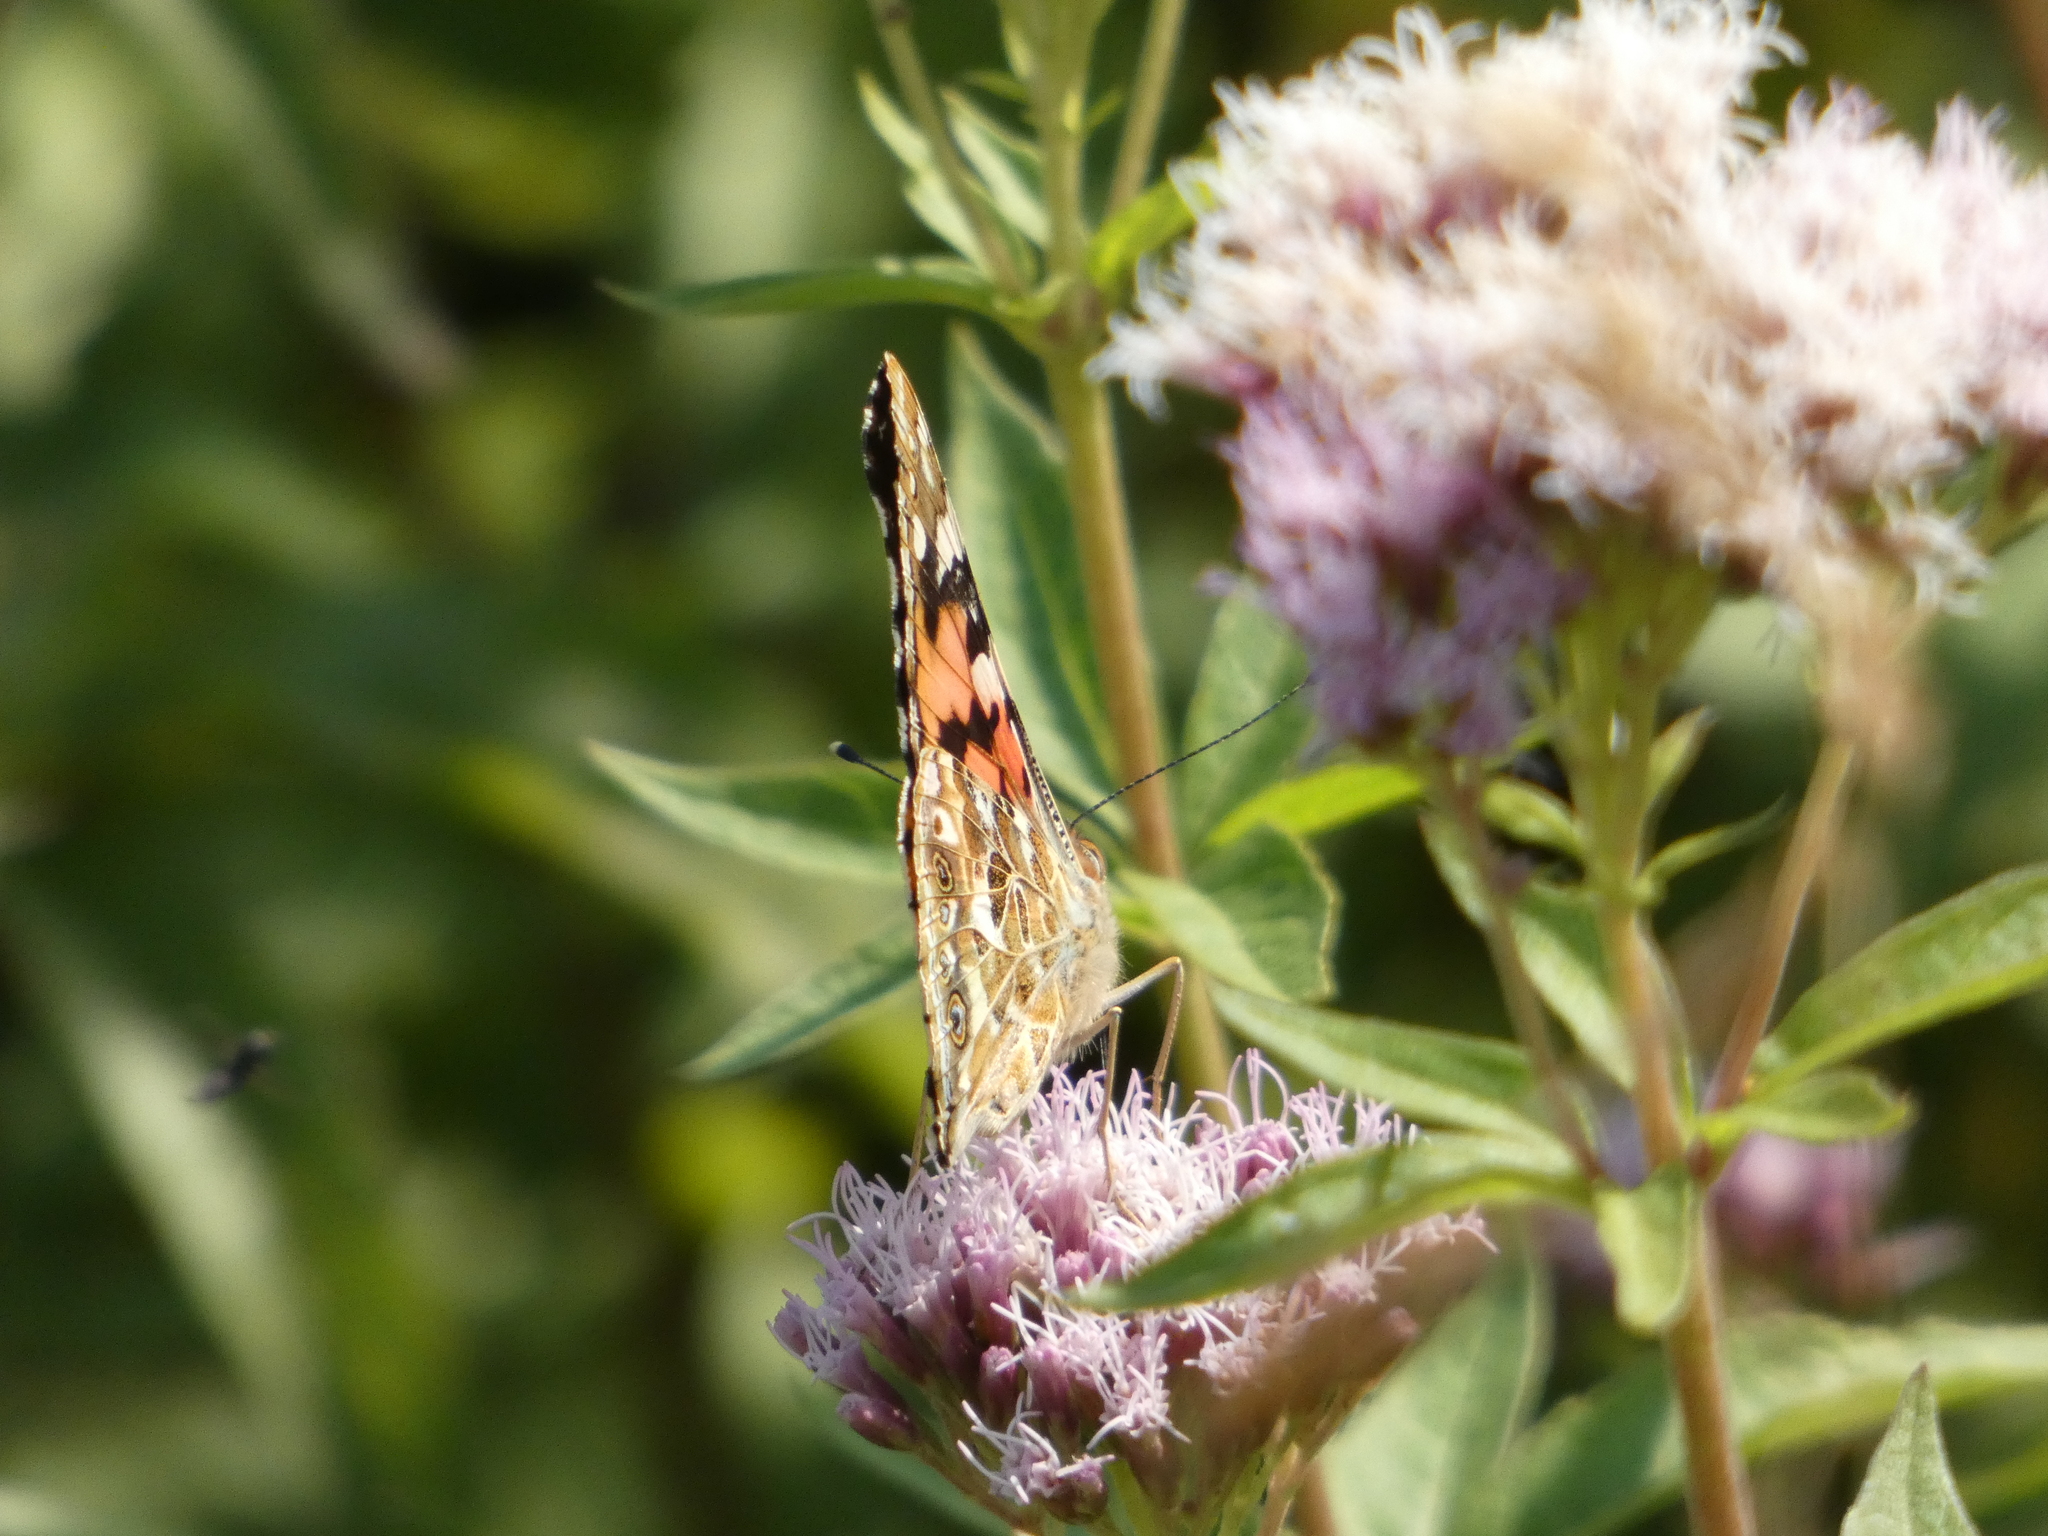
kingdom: Animalia
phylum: Arthropoda
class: Insecta
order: Lepidoptera
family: Nymphalidae
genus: Vanessa
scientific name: Vanessa cardui
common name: Painted lady
